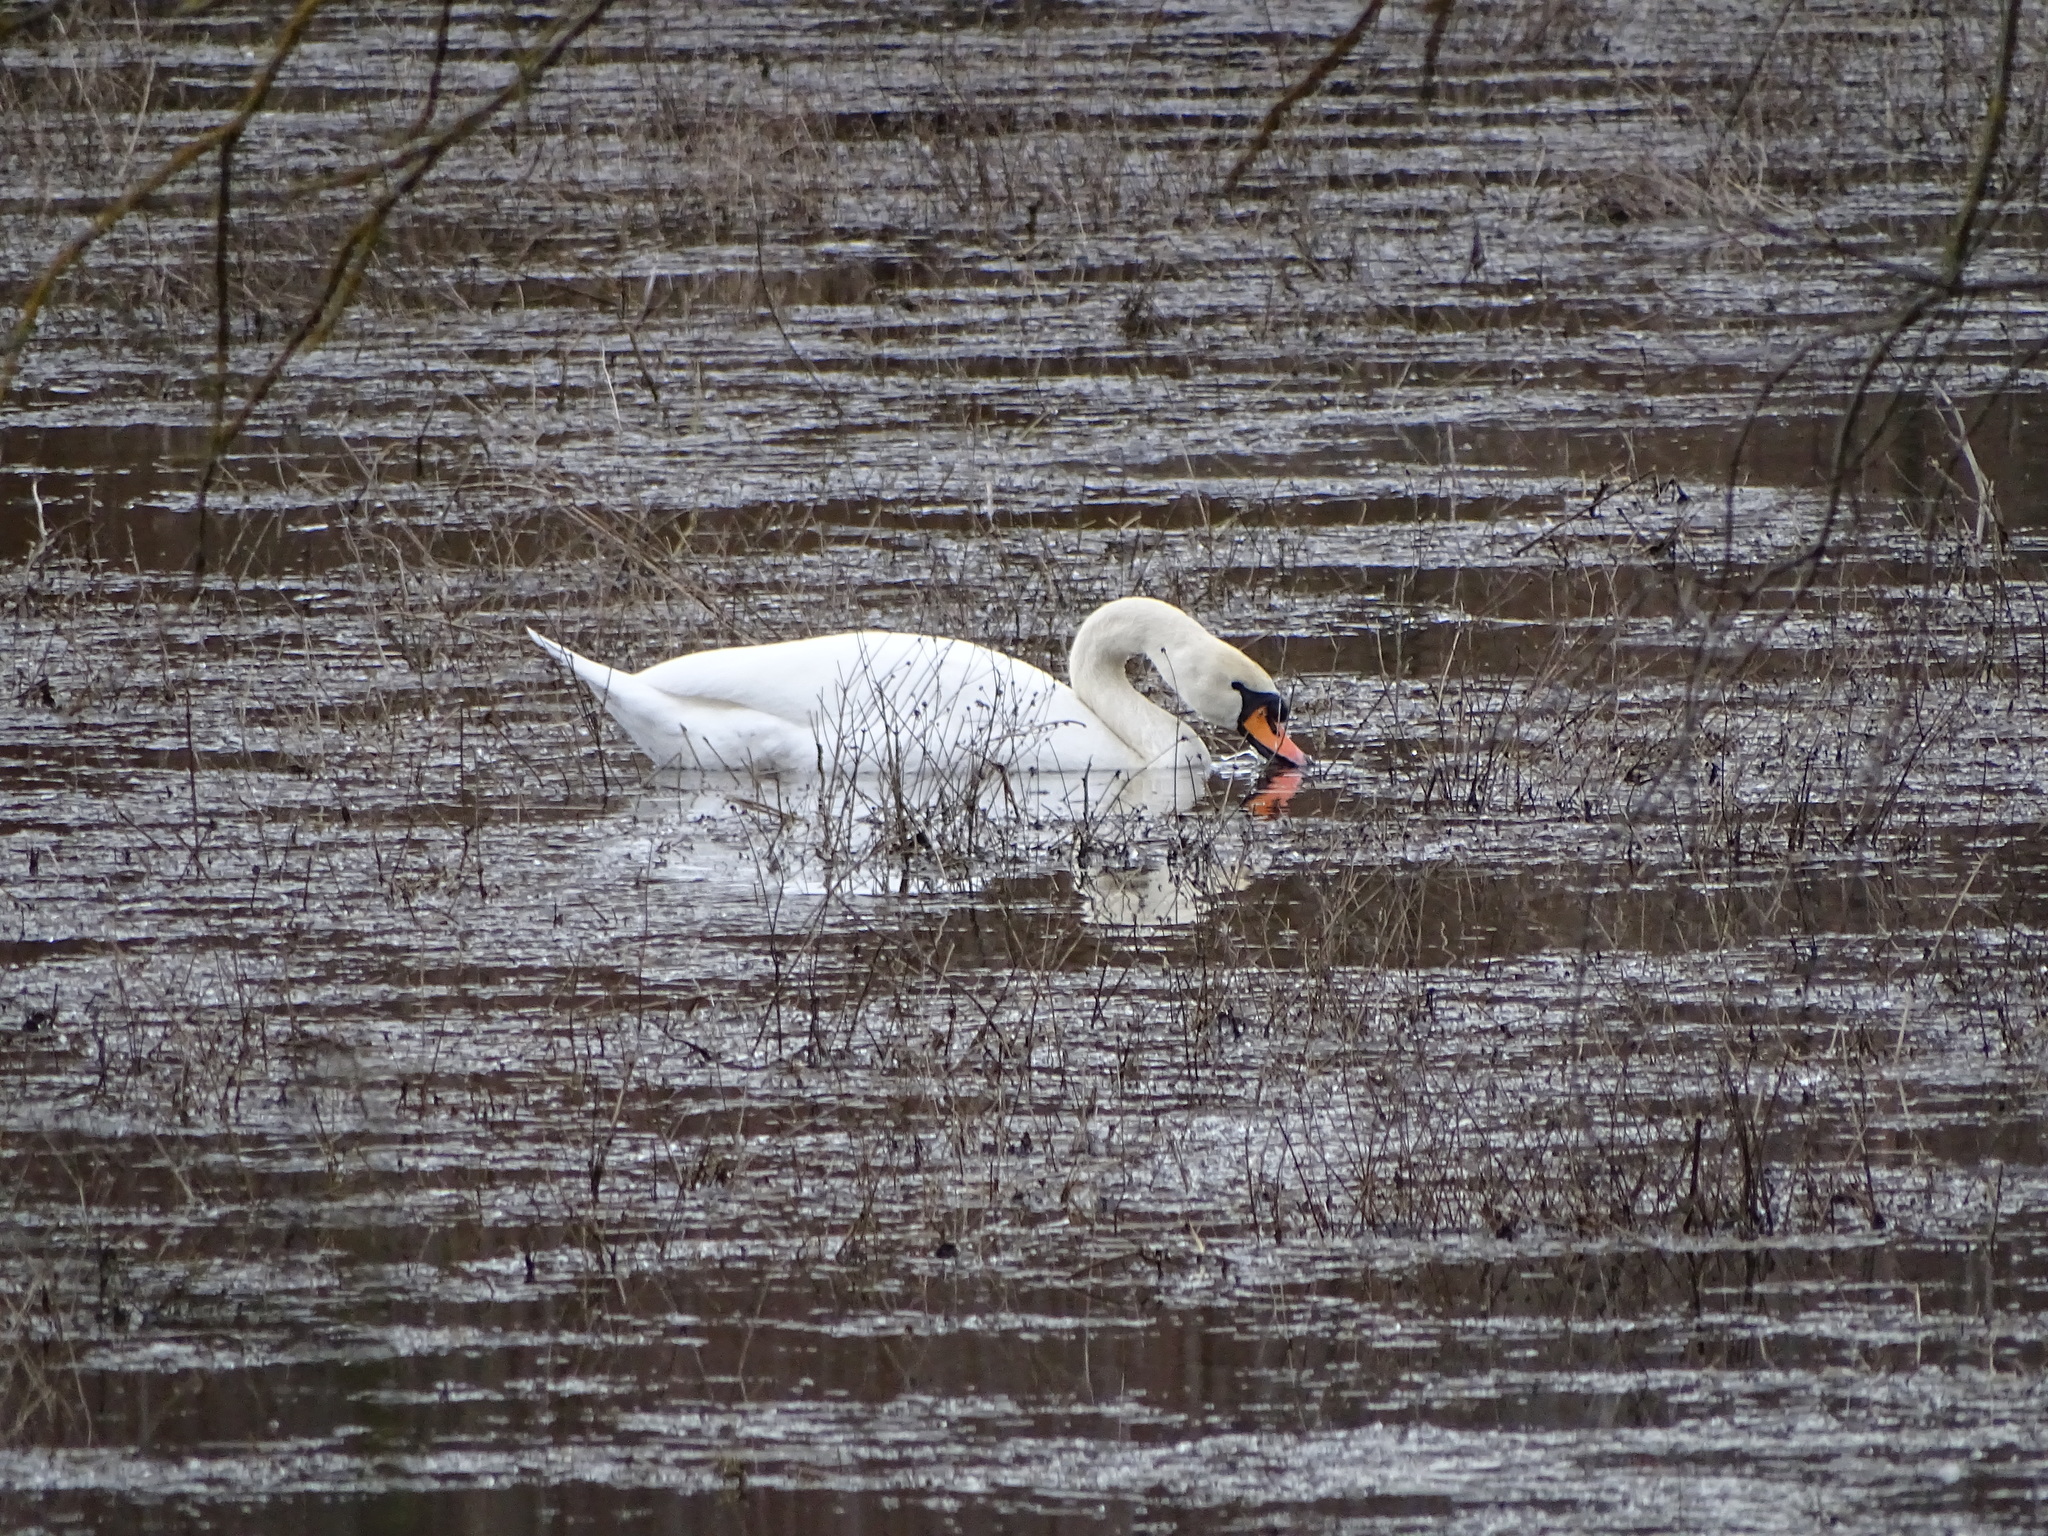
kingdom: Animalia
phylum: Chordata
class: Aves
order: Anseriformes
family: Anatidae
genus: Cygnus
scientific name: Cygnus olor
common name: Mute swan
